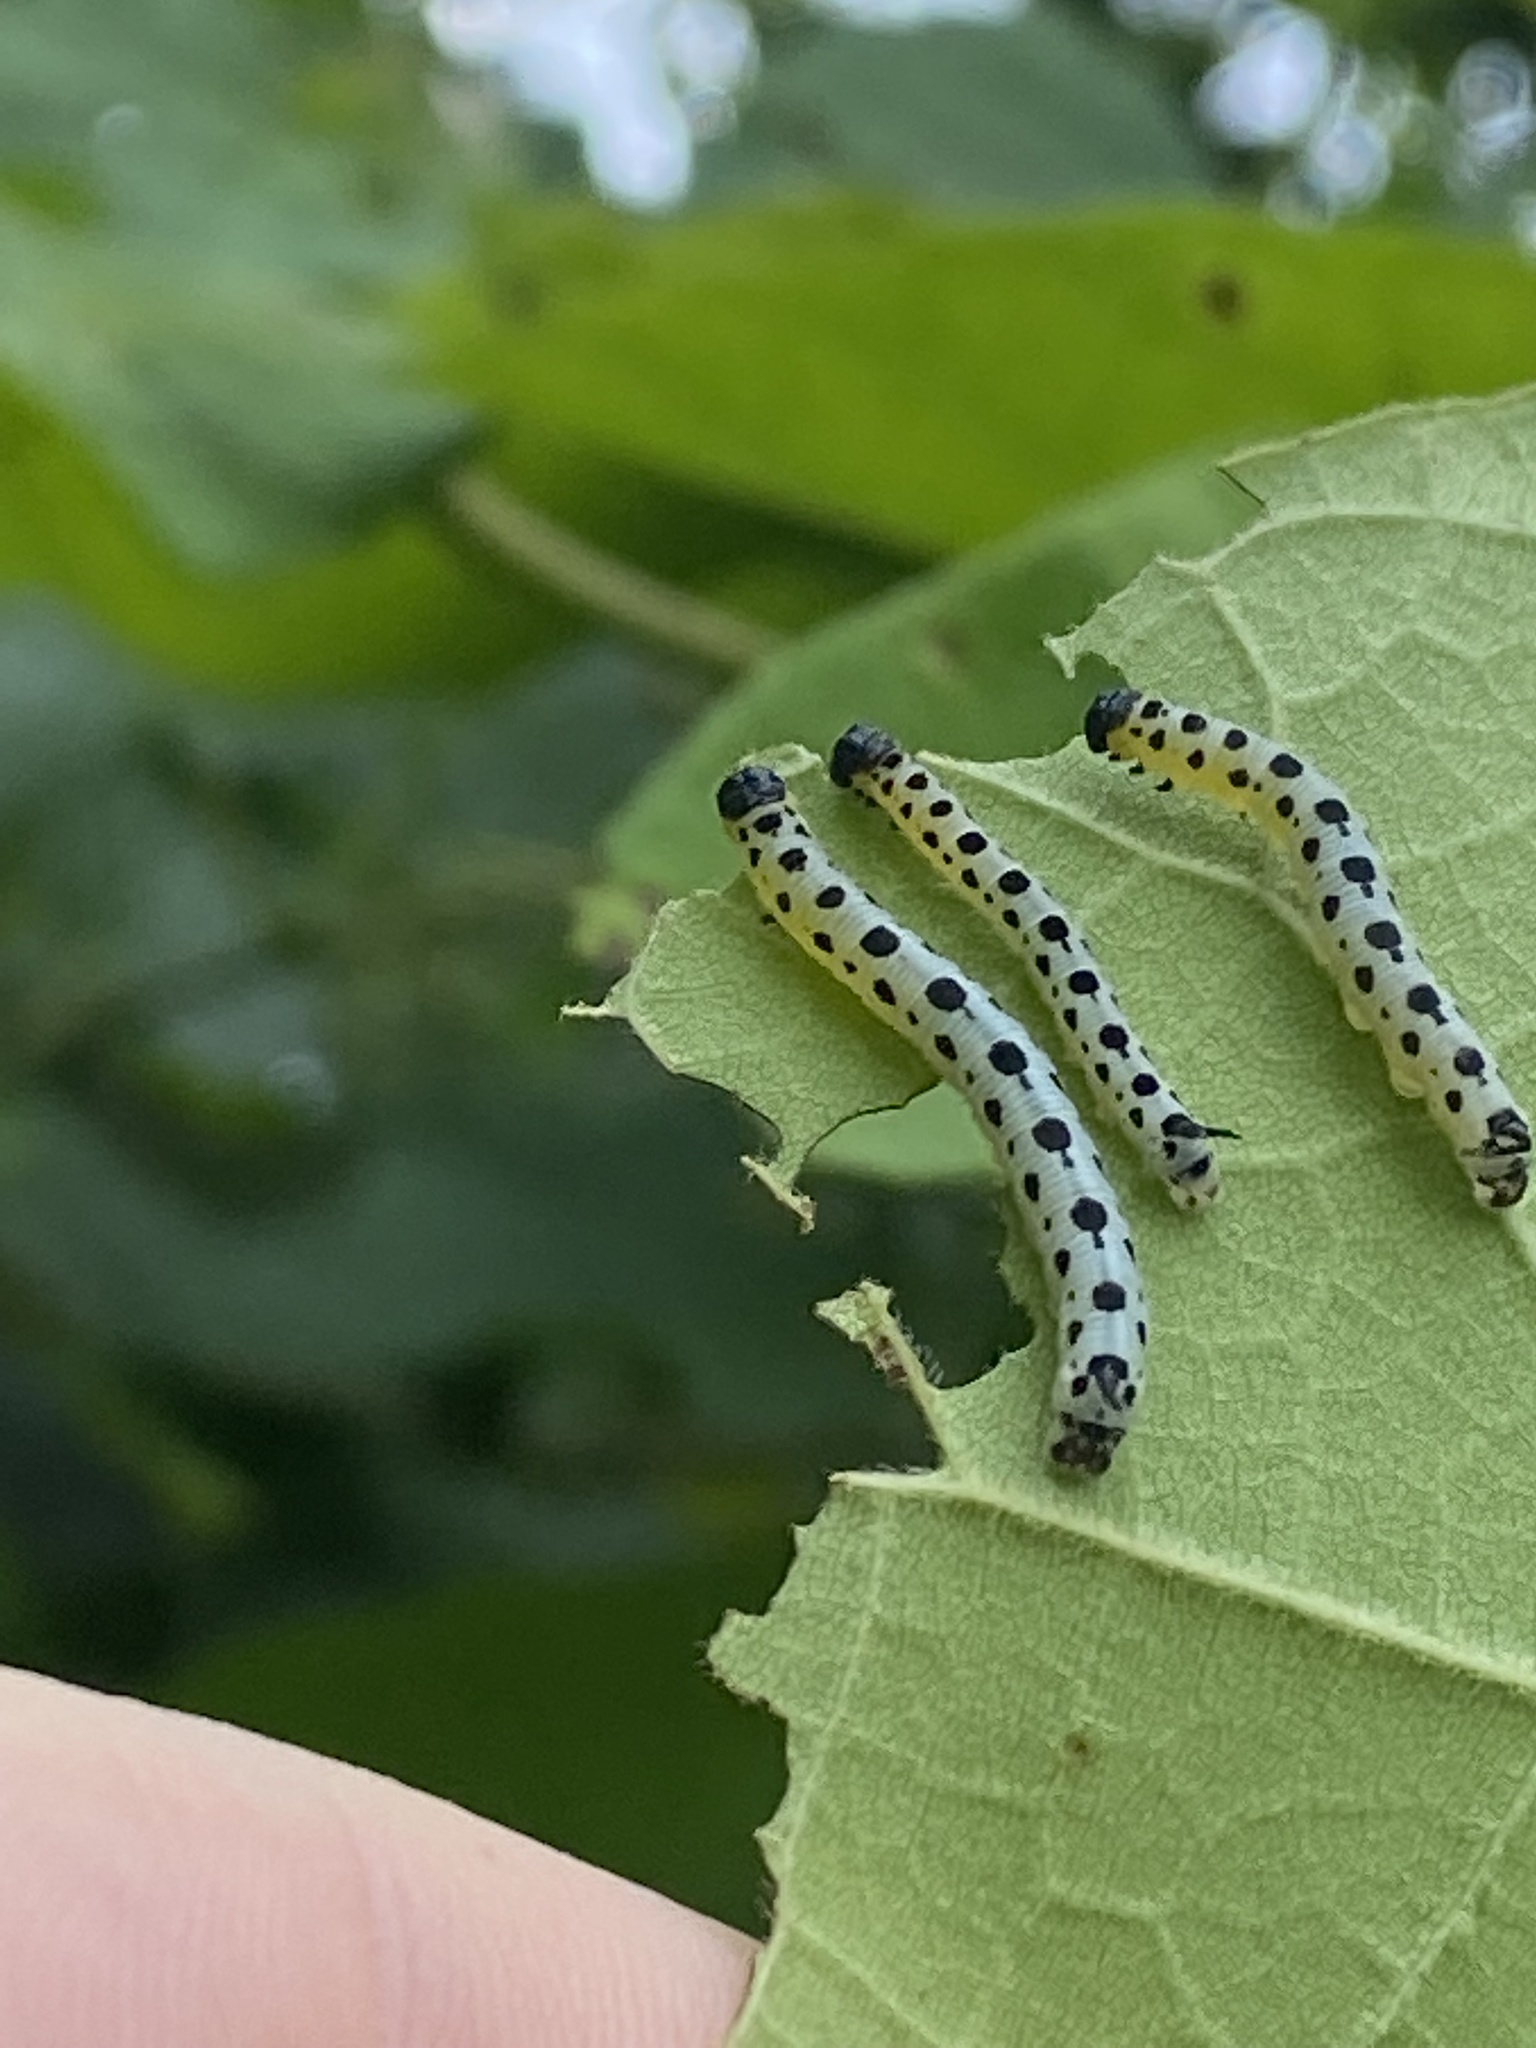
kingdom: Animalia
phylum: Arthropoda
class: Insecta
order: Lepidoptera
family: Sphingidae
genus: Ceratomia
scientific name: Ceratomia catalpae
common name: Catalpa hornworm
